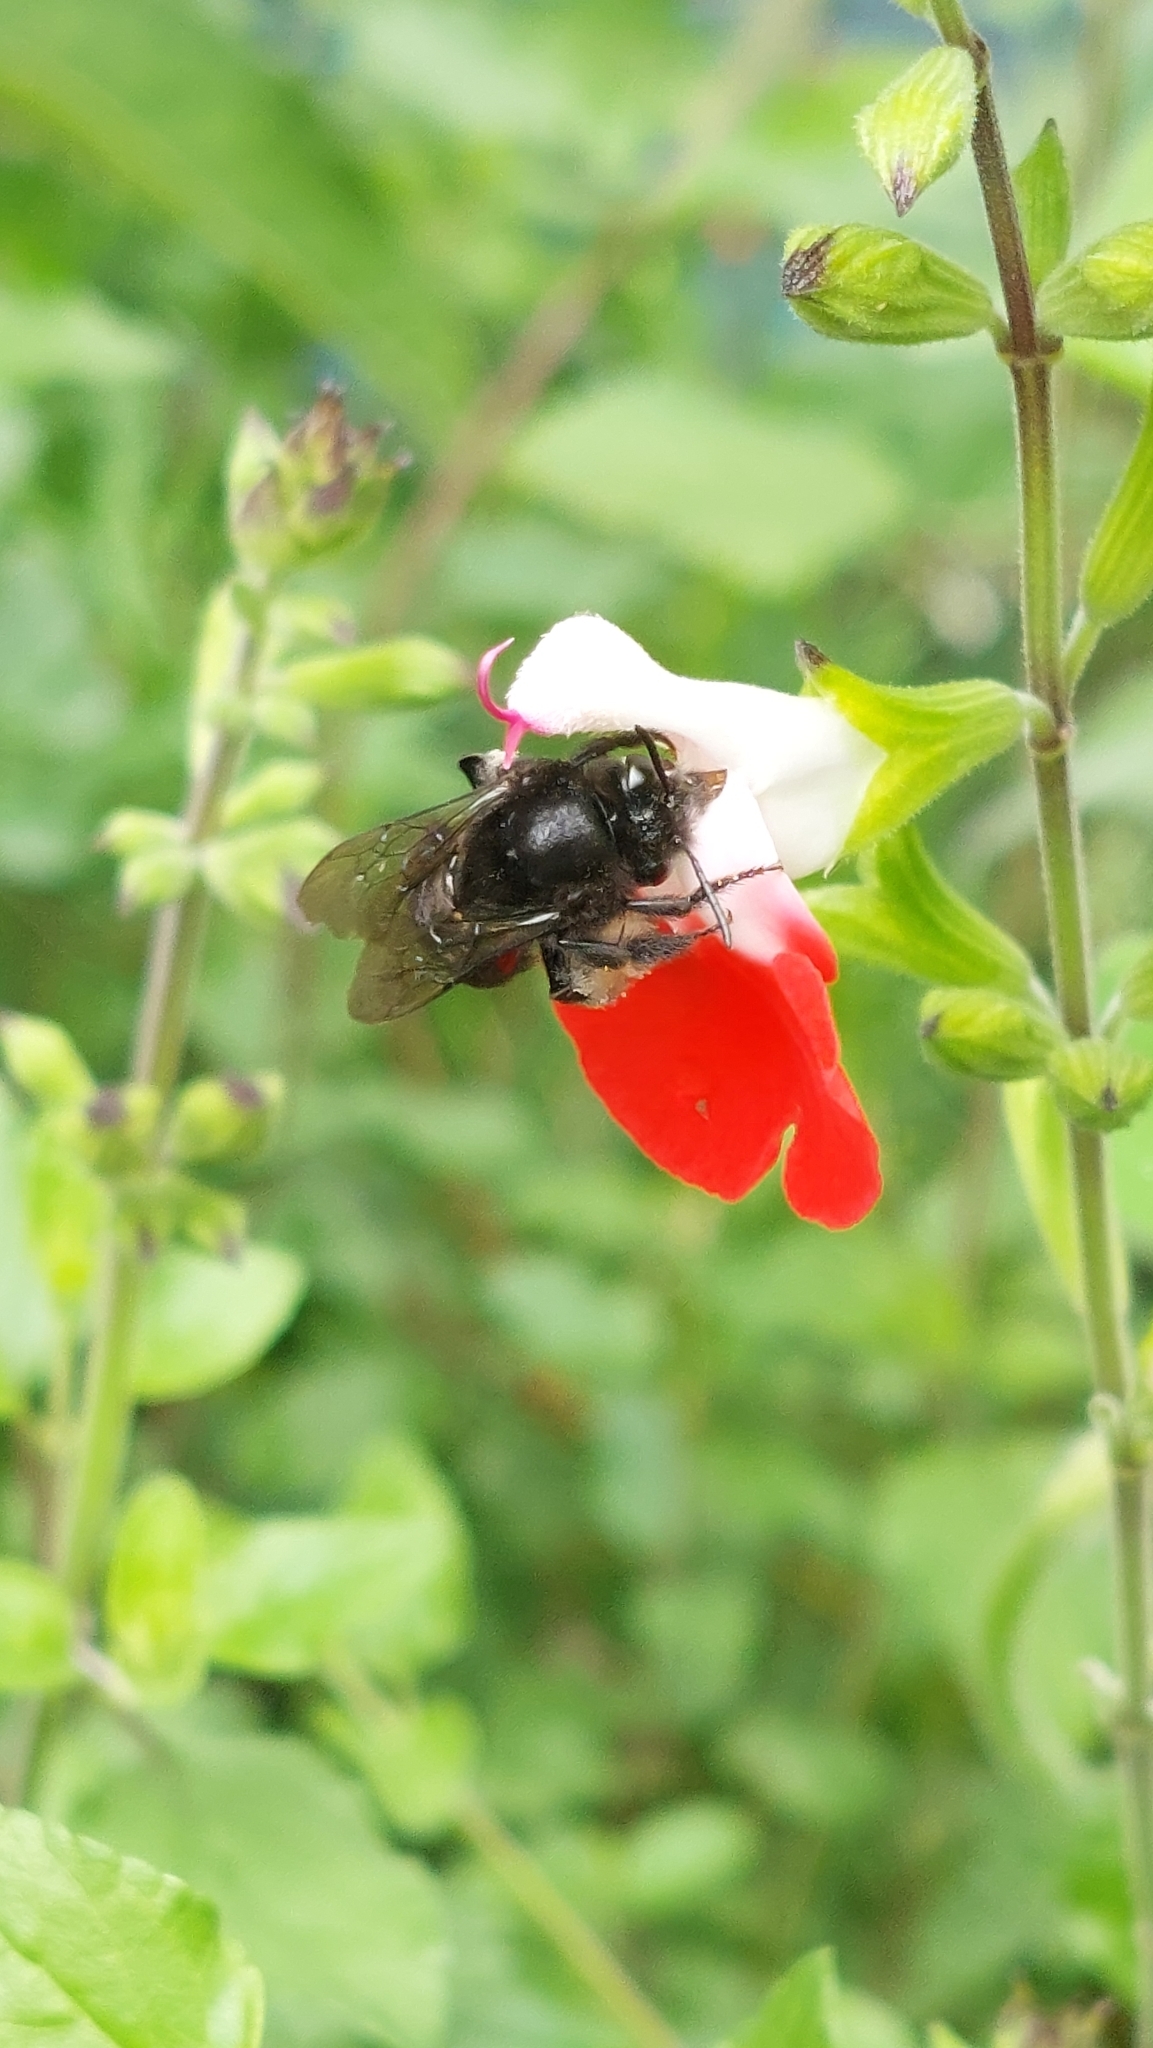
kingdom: Animalia
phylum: Arthropoda
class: Insecta
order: Hymenoptera
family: Apidae
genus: Thygater
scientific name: Thygater aethiops
